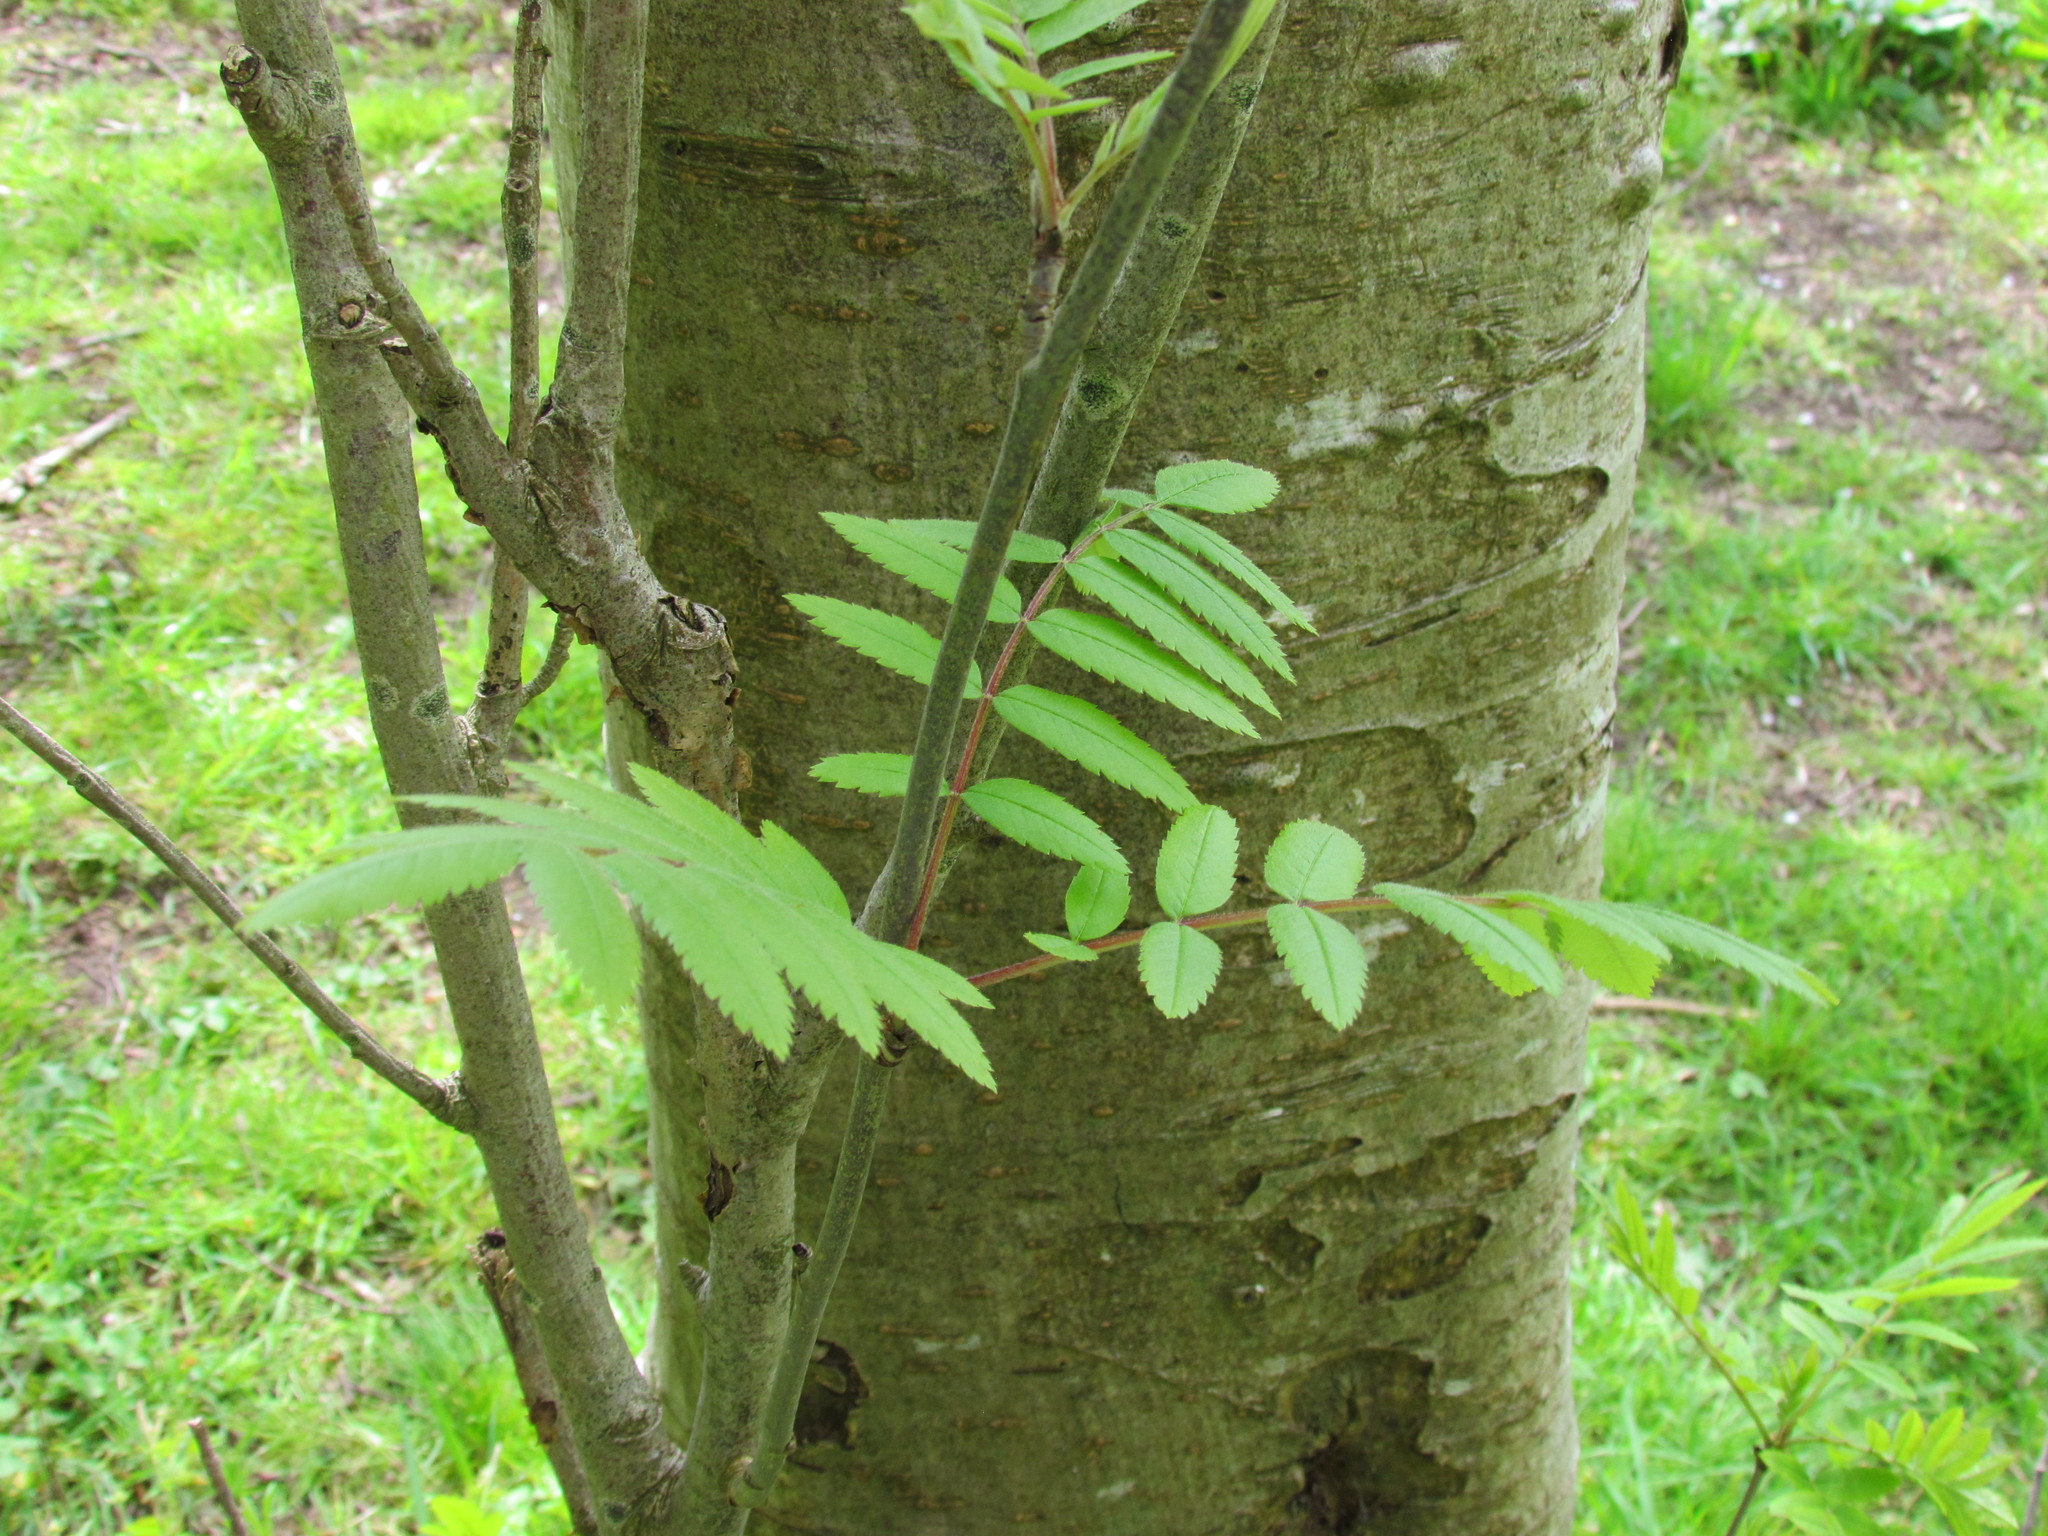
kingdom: Plantae
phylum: Tracheophyta
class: Magnoliopsida
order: Rosales
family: Rosaceae
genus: Sorbus
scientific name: Sorbus aucuparia
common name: Rowan
